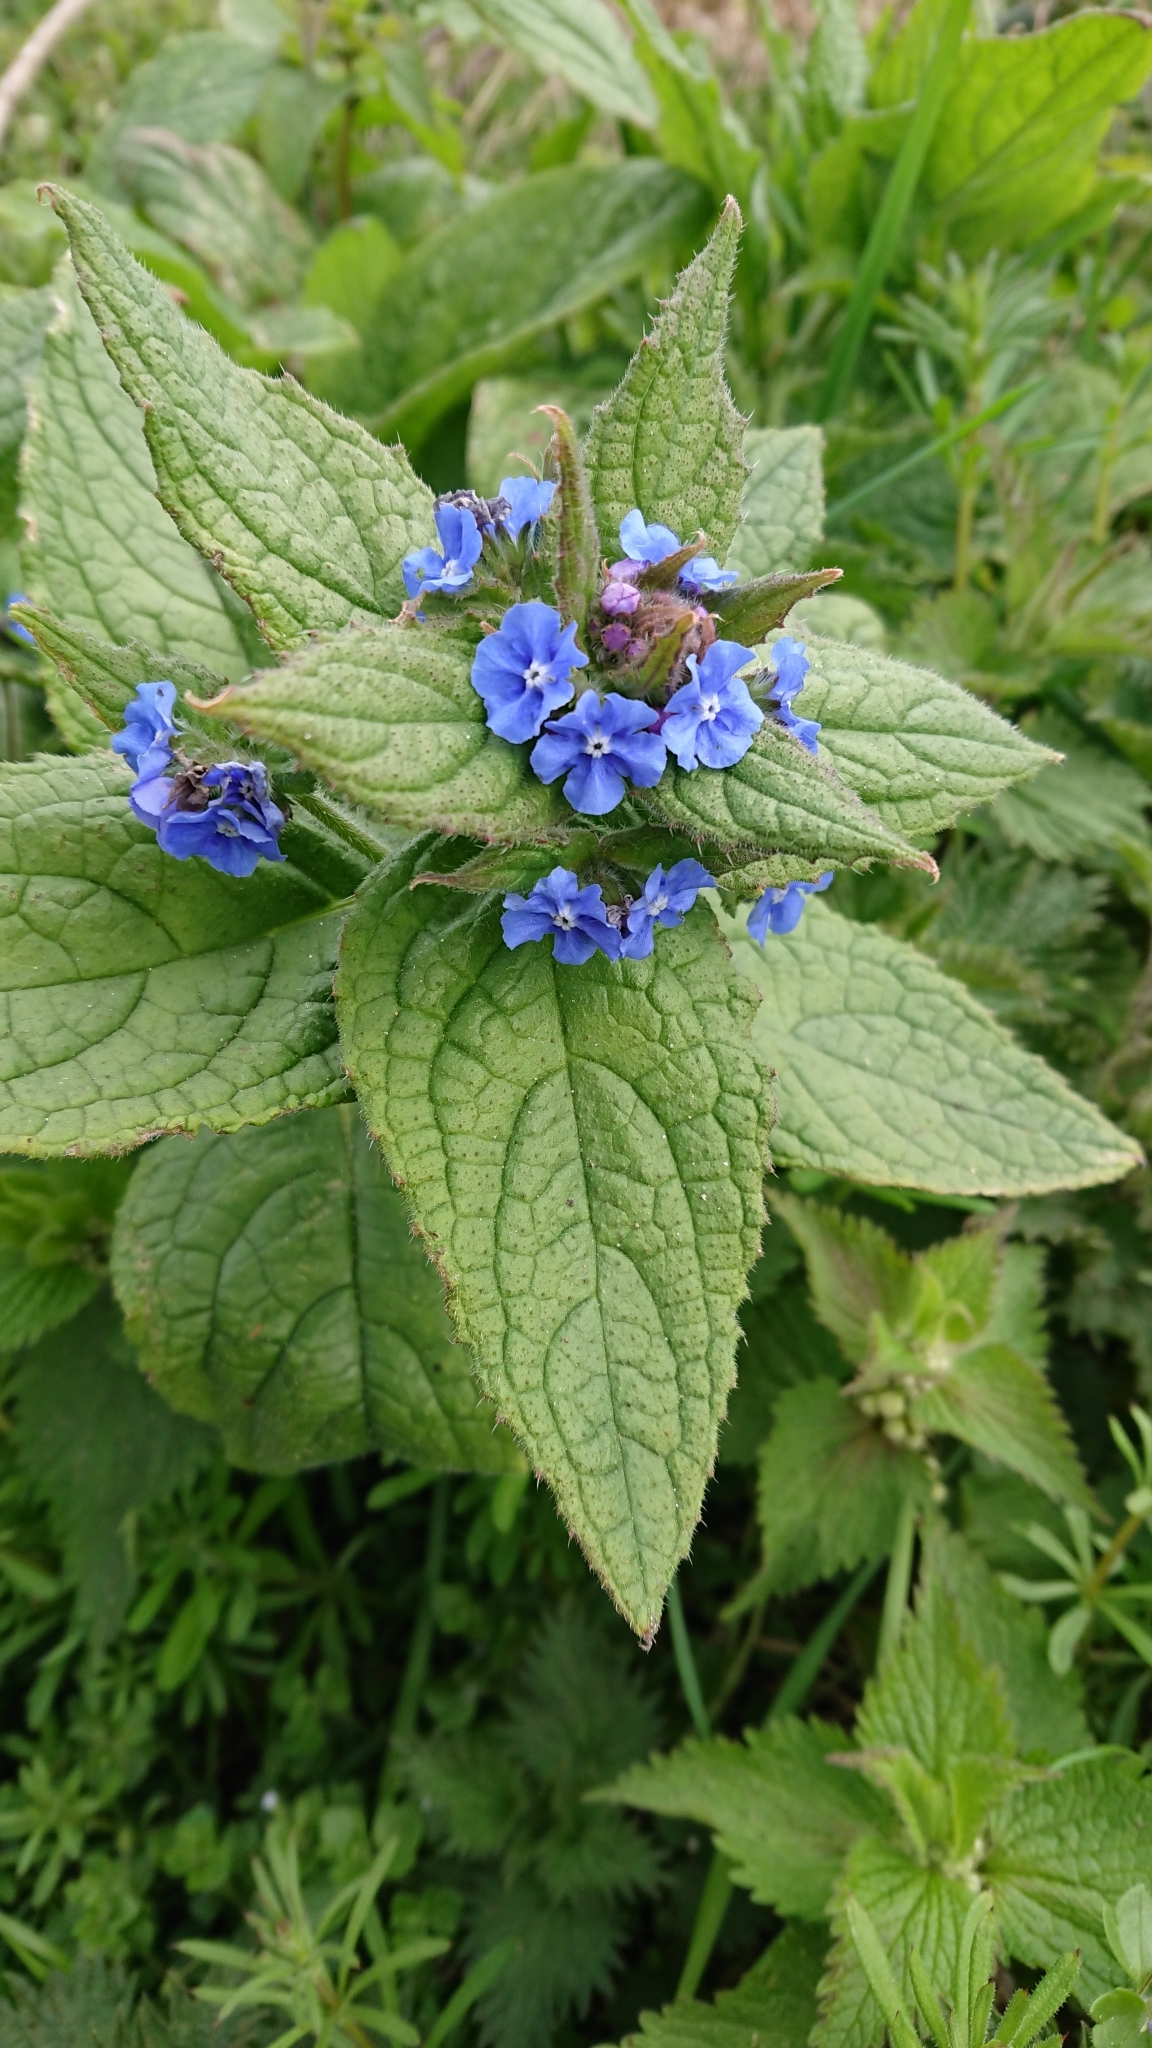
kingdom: Plantae
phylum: Tracheophyta
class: Magnoliopsida
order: Boraginales
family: Boraginaceae
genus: Pentaglottis
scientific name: Pentaglottis sempervirens
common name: Green alkanet
